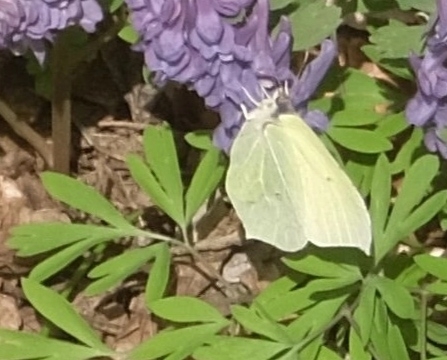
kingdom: Animalia
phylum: Arthropoda
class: Insecta
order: Lepidoptera
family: Pieridae
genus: Gonepteryx
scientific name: Gonepteryx rhamni
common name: Brimstone
